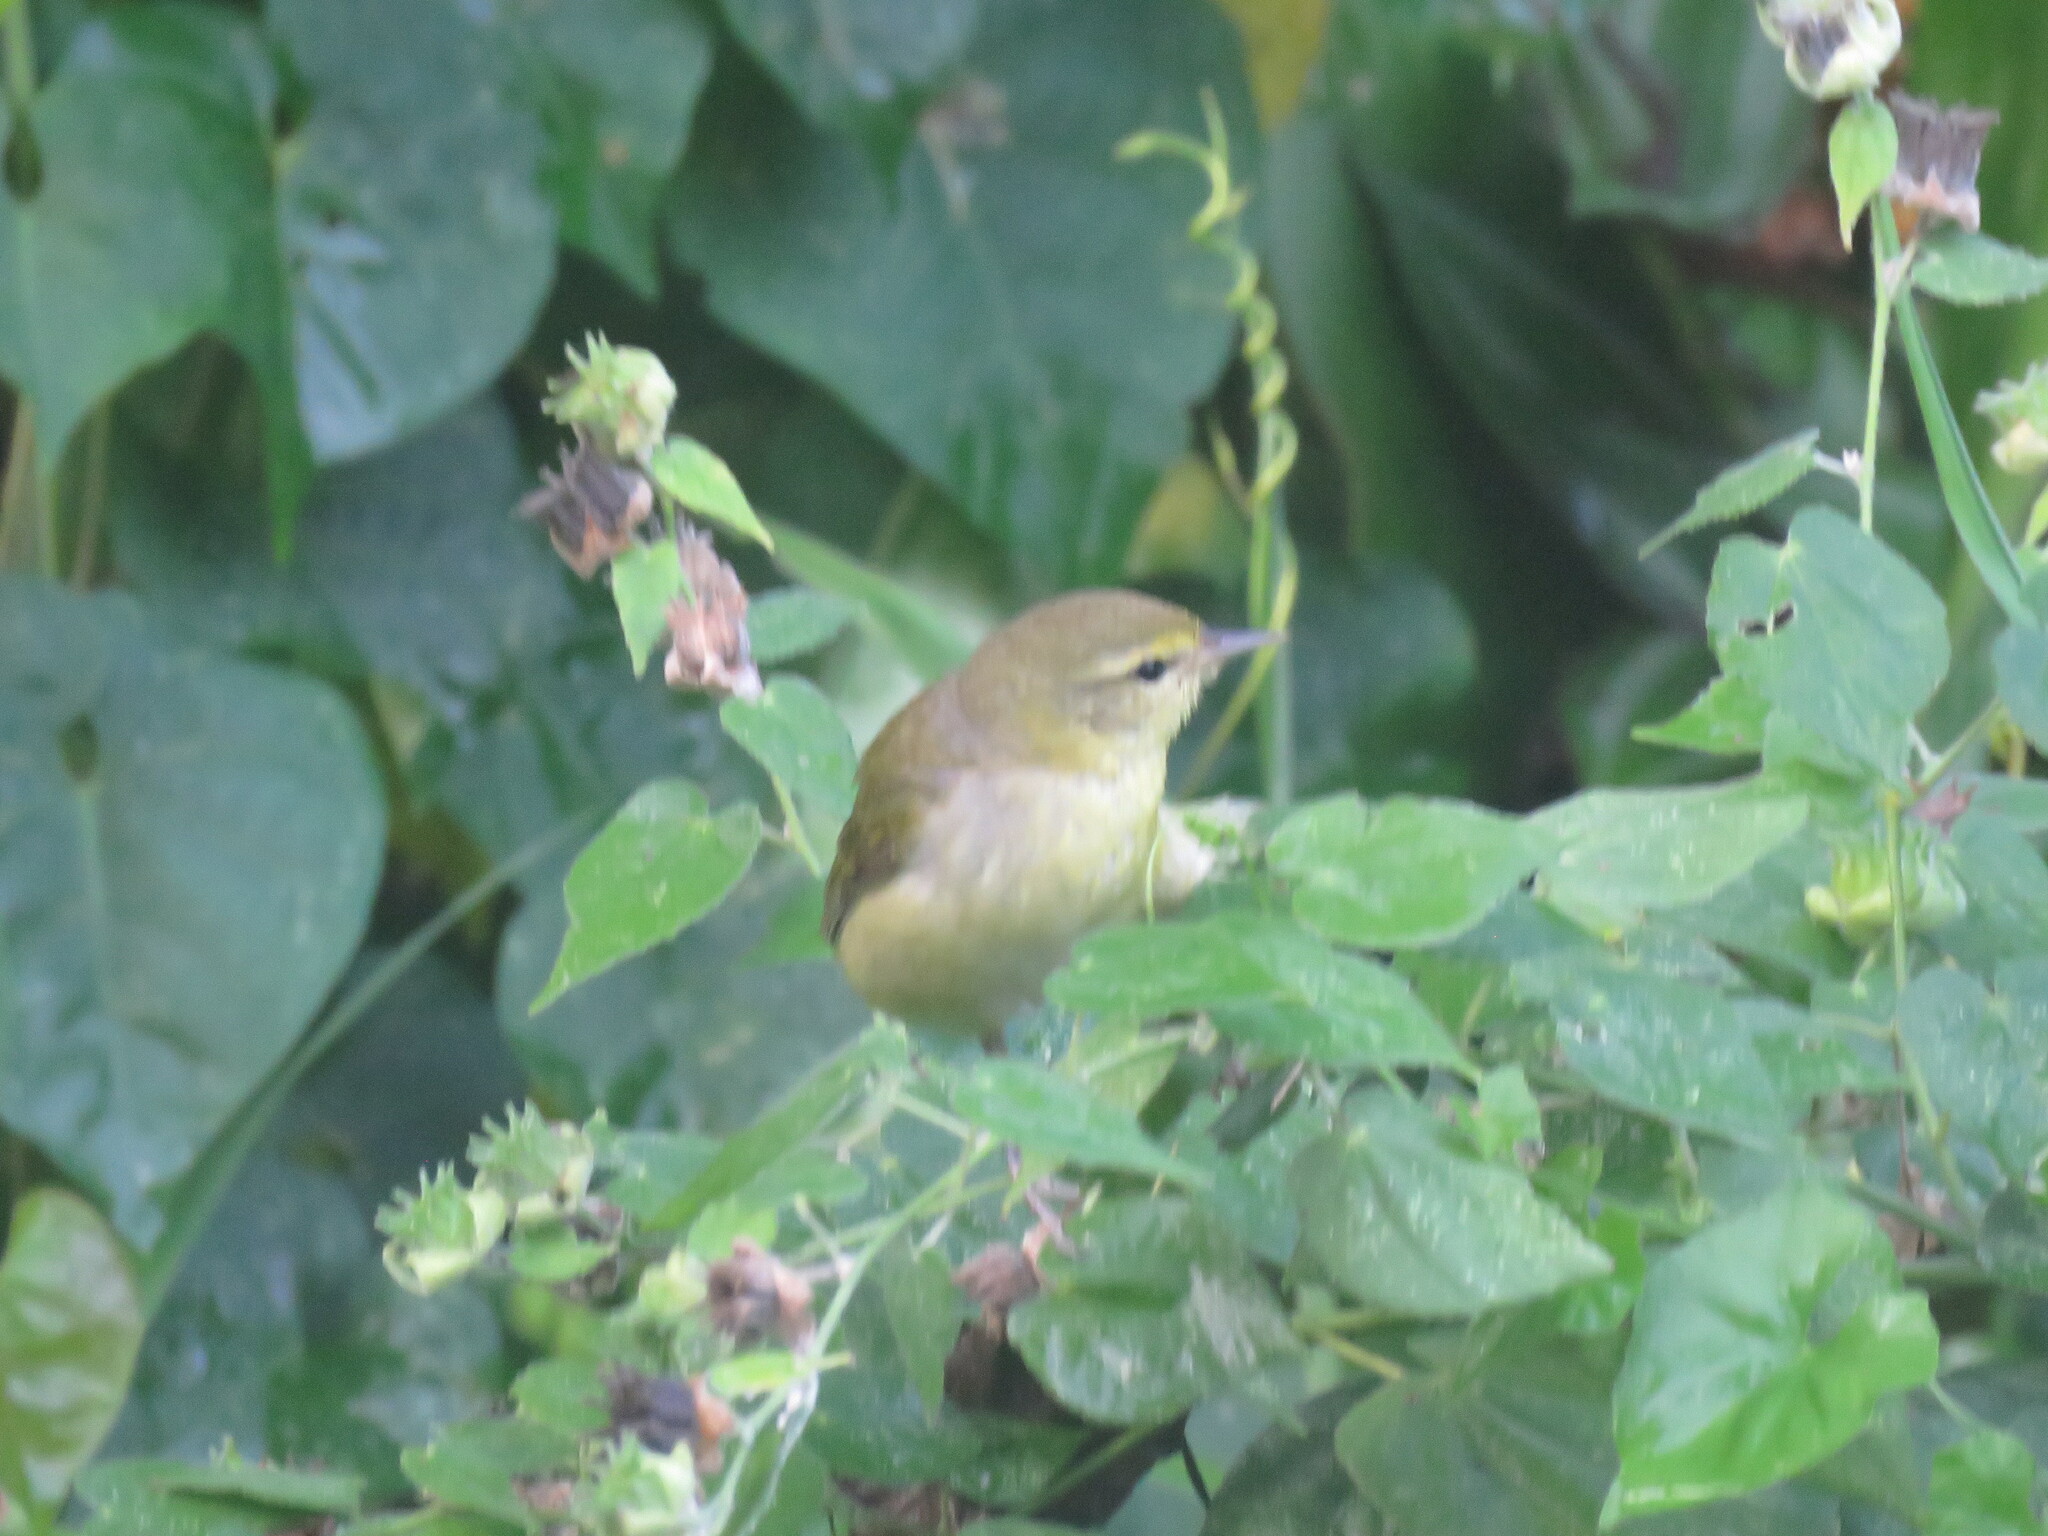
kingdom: Animalia
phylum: Chordata
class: Aves
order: Passeriformes
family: Parulidae
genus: Leiothlypis
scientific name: Leiothlypis peregrina
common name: Tennessee warbler
